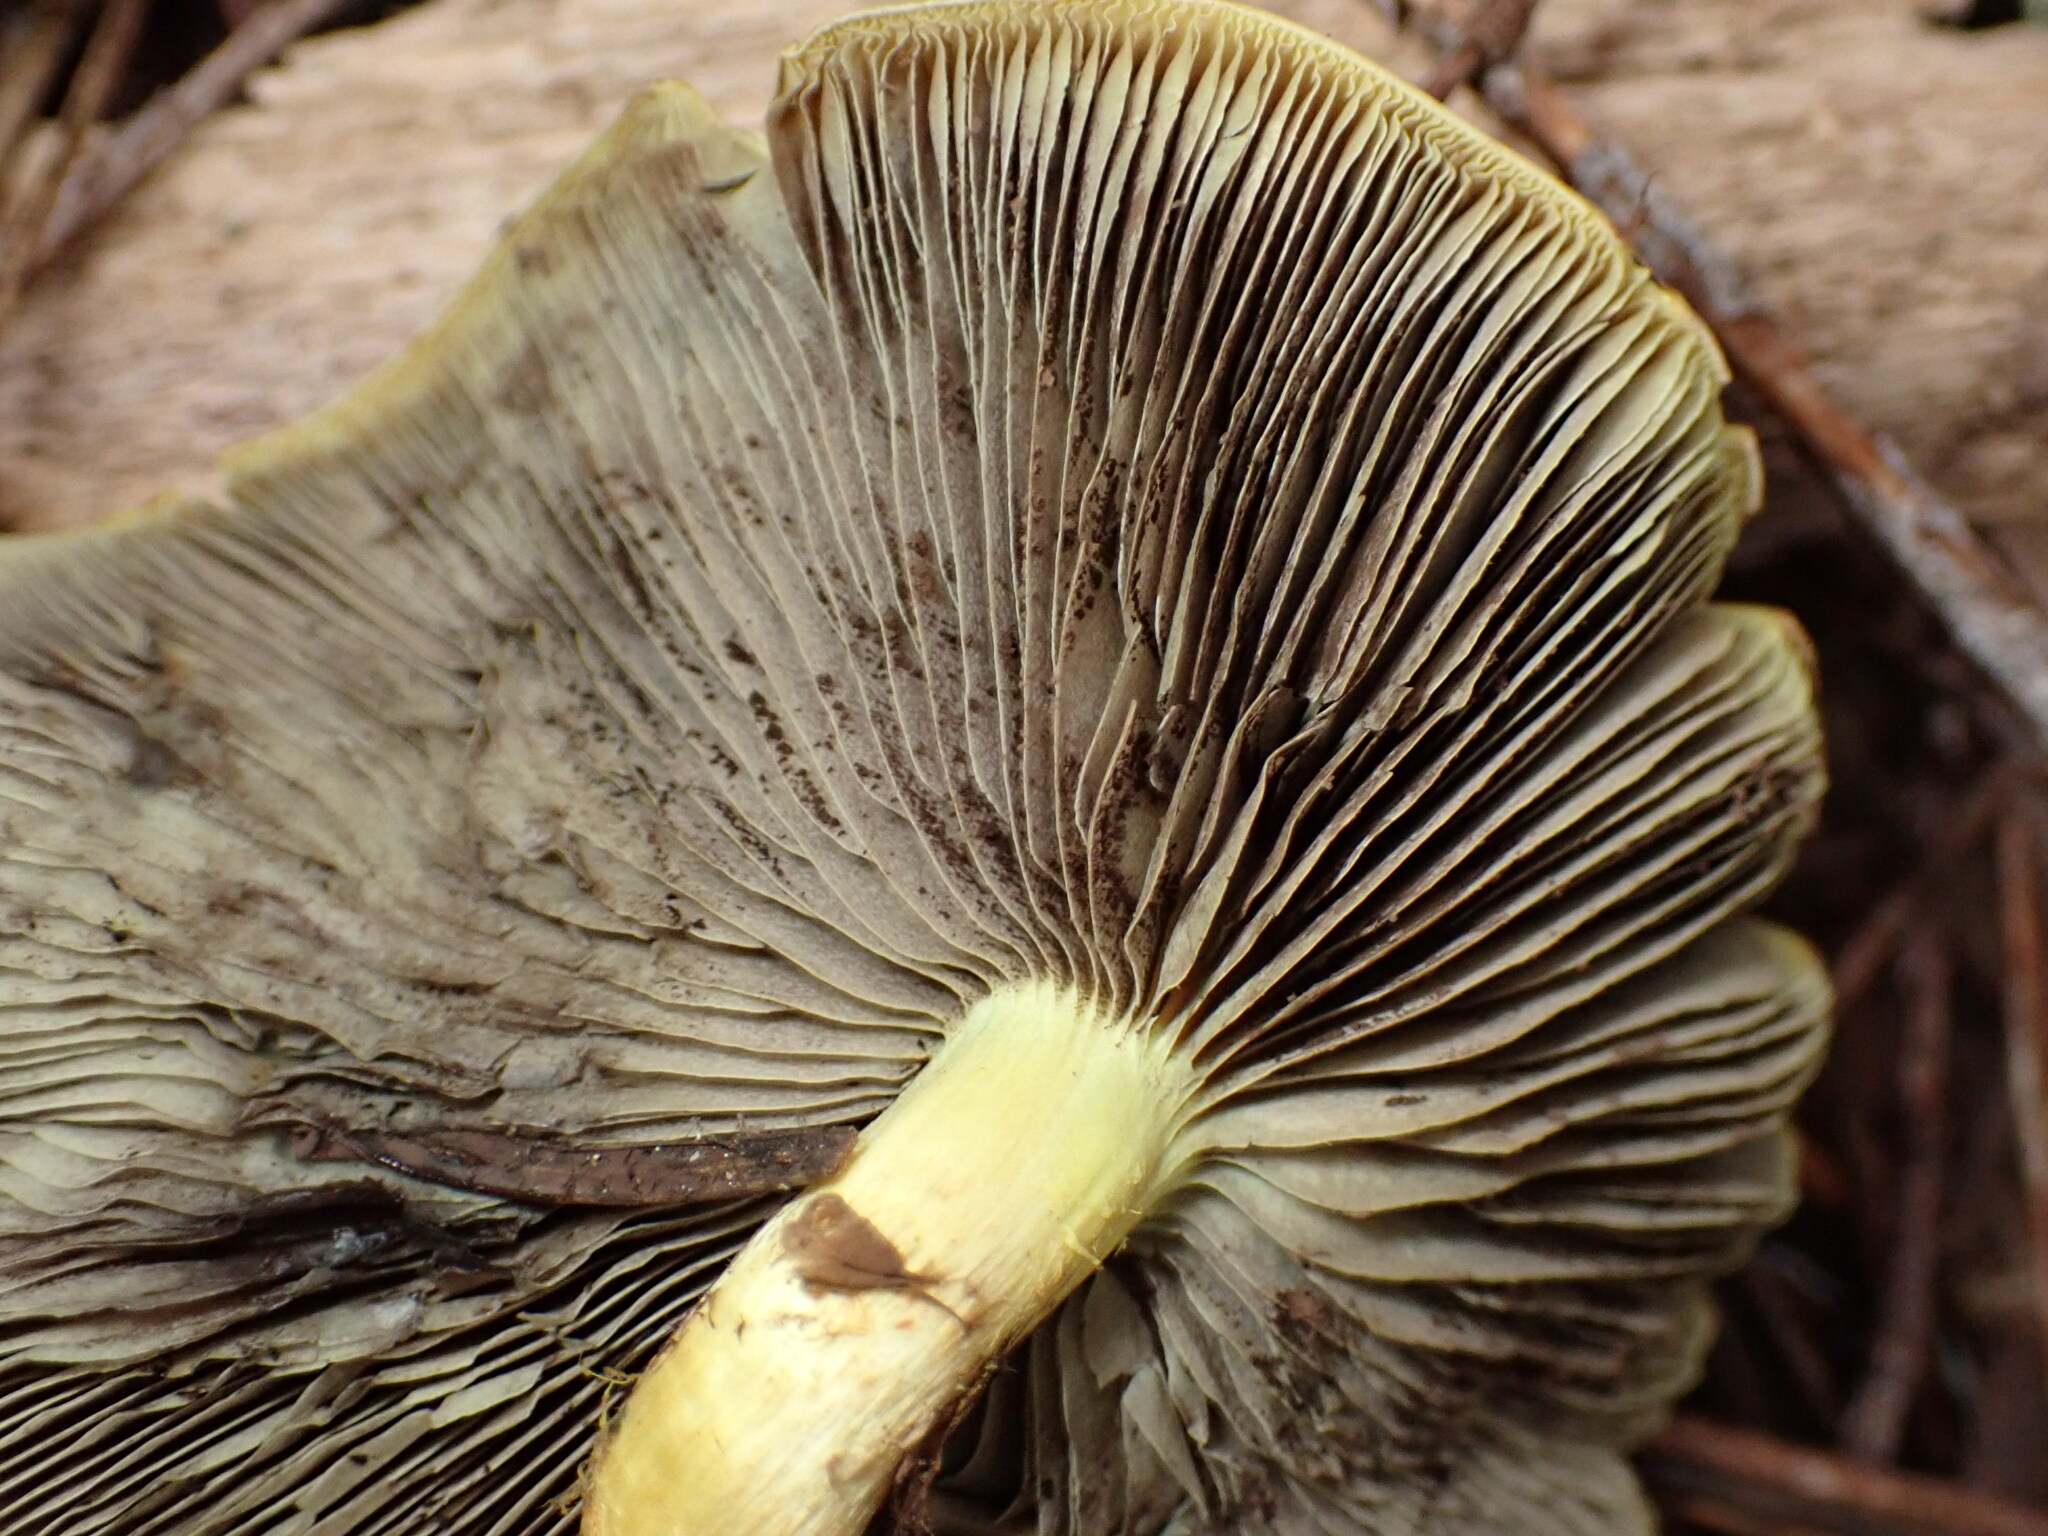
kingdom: Fungi
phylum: Basidiomycota
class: Agaricomycetes
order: Agaricales
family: Strophariaceae
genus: Hypholoma
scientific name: Hypholoma fasciculare
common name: Sulphur tuft
